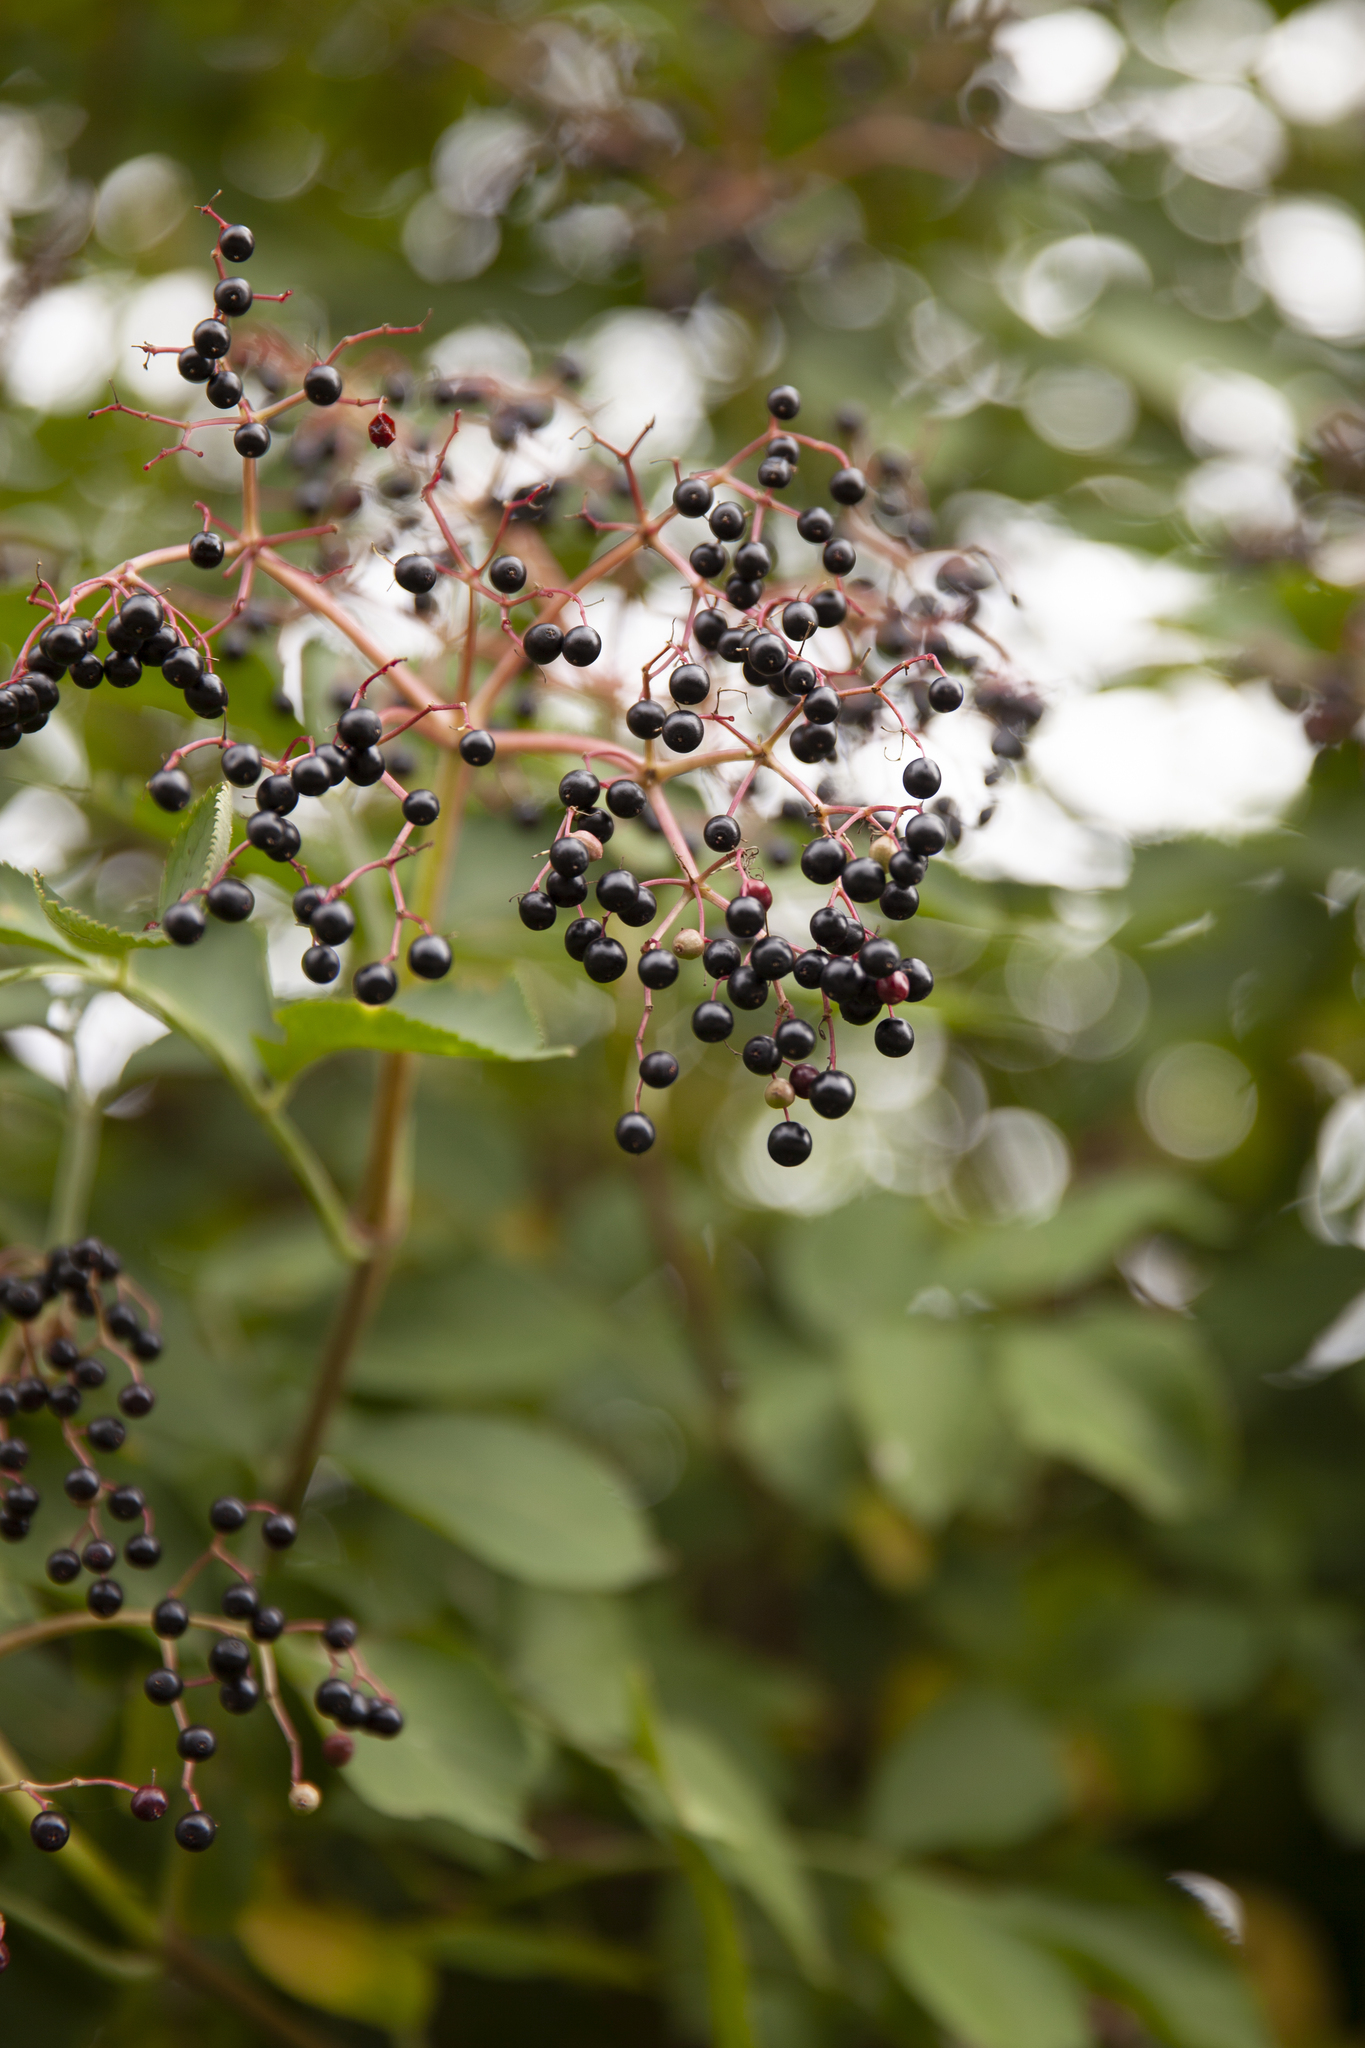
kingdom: Plantae
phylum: Tracheophyta
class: Magnoliopsida
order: Dipsacales
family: Viburnaceae
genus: Sambucus
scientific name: Sambucus nigra
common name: Elder
